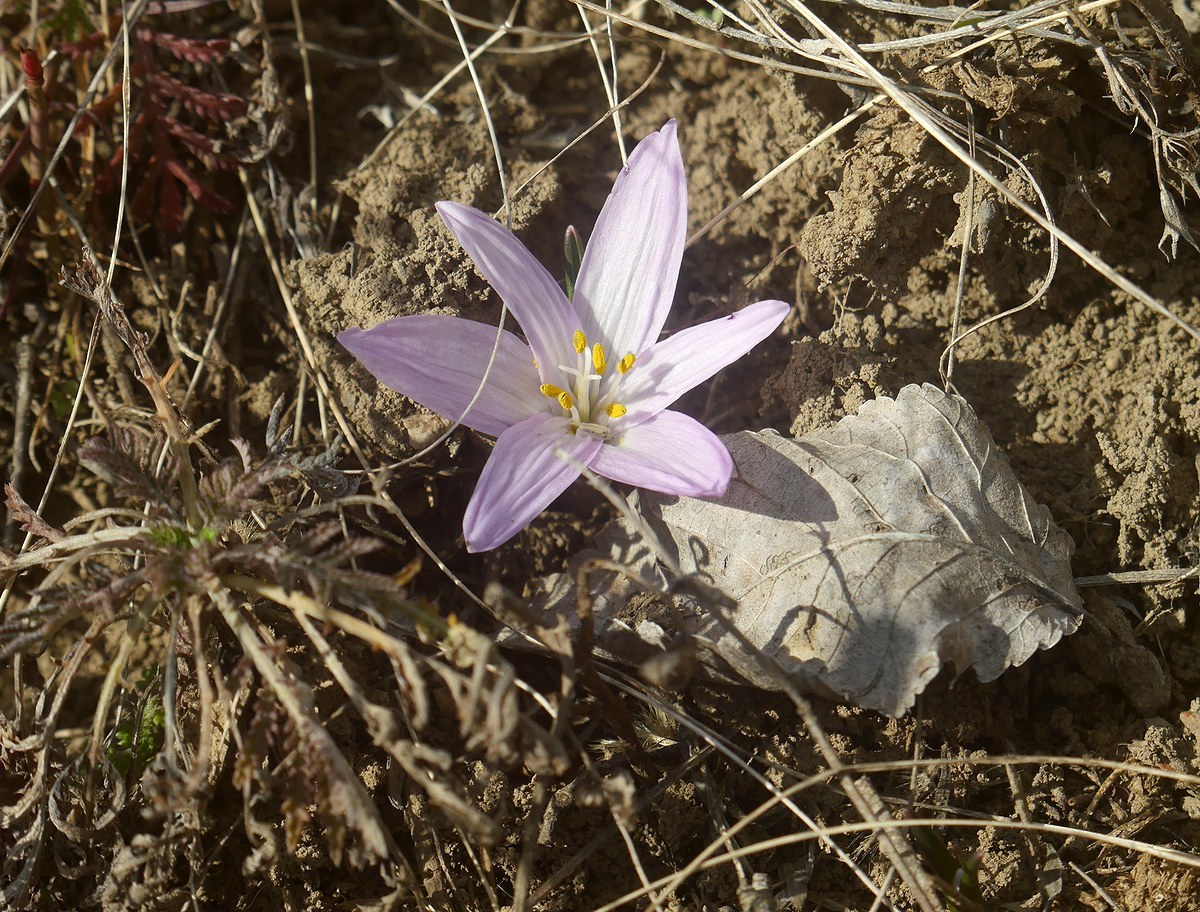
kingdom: Plantae
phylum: Tracheophyta
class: Liliopsida
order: Liliales
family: Colchicaceae
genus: Colchicum
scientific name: Colchicum bulbocodium
